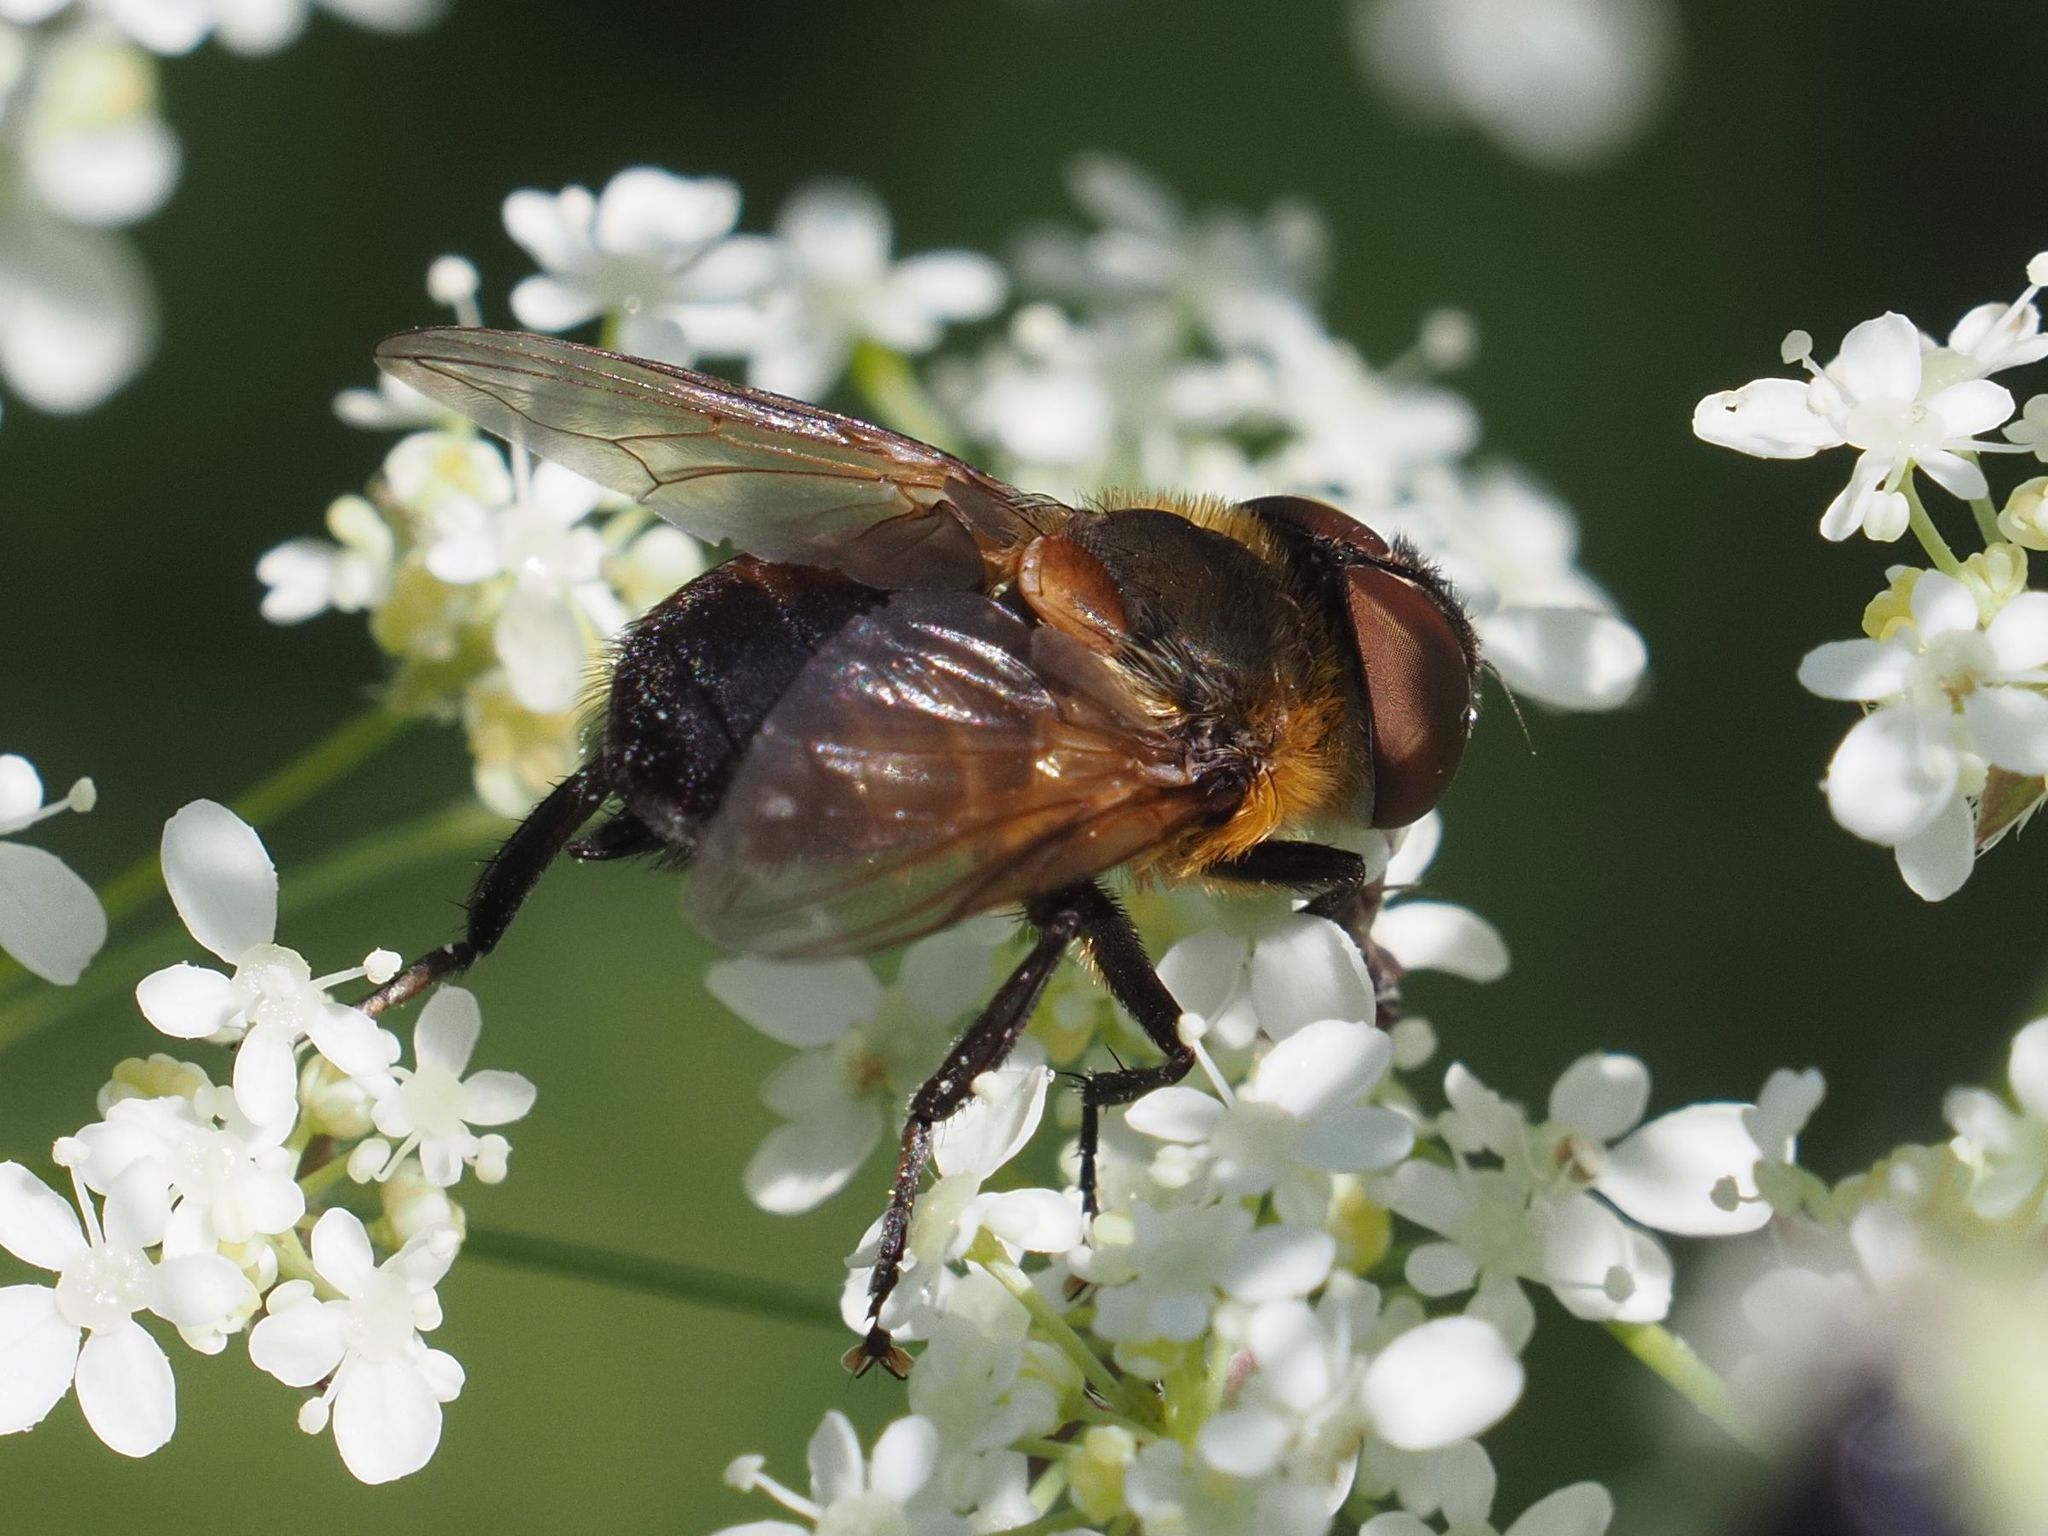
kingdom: Animalia
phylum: Arthropoda
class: Insecta
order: Diptera
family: Tachinidae
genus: Phasia
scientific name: Phasia hemiptera
